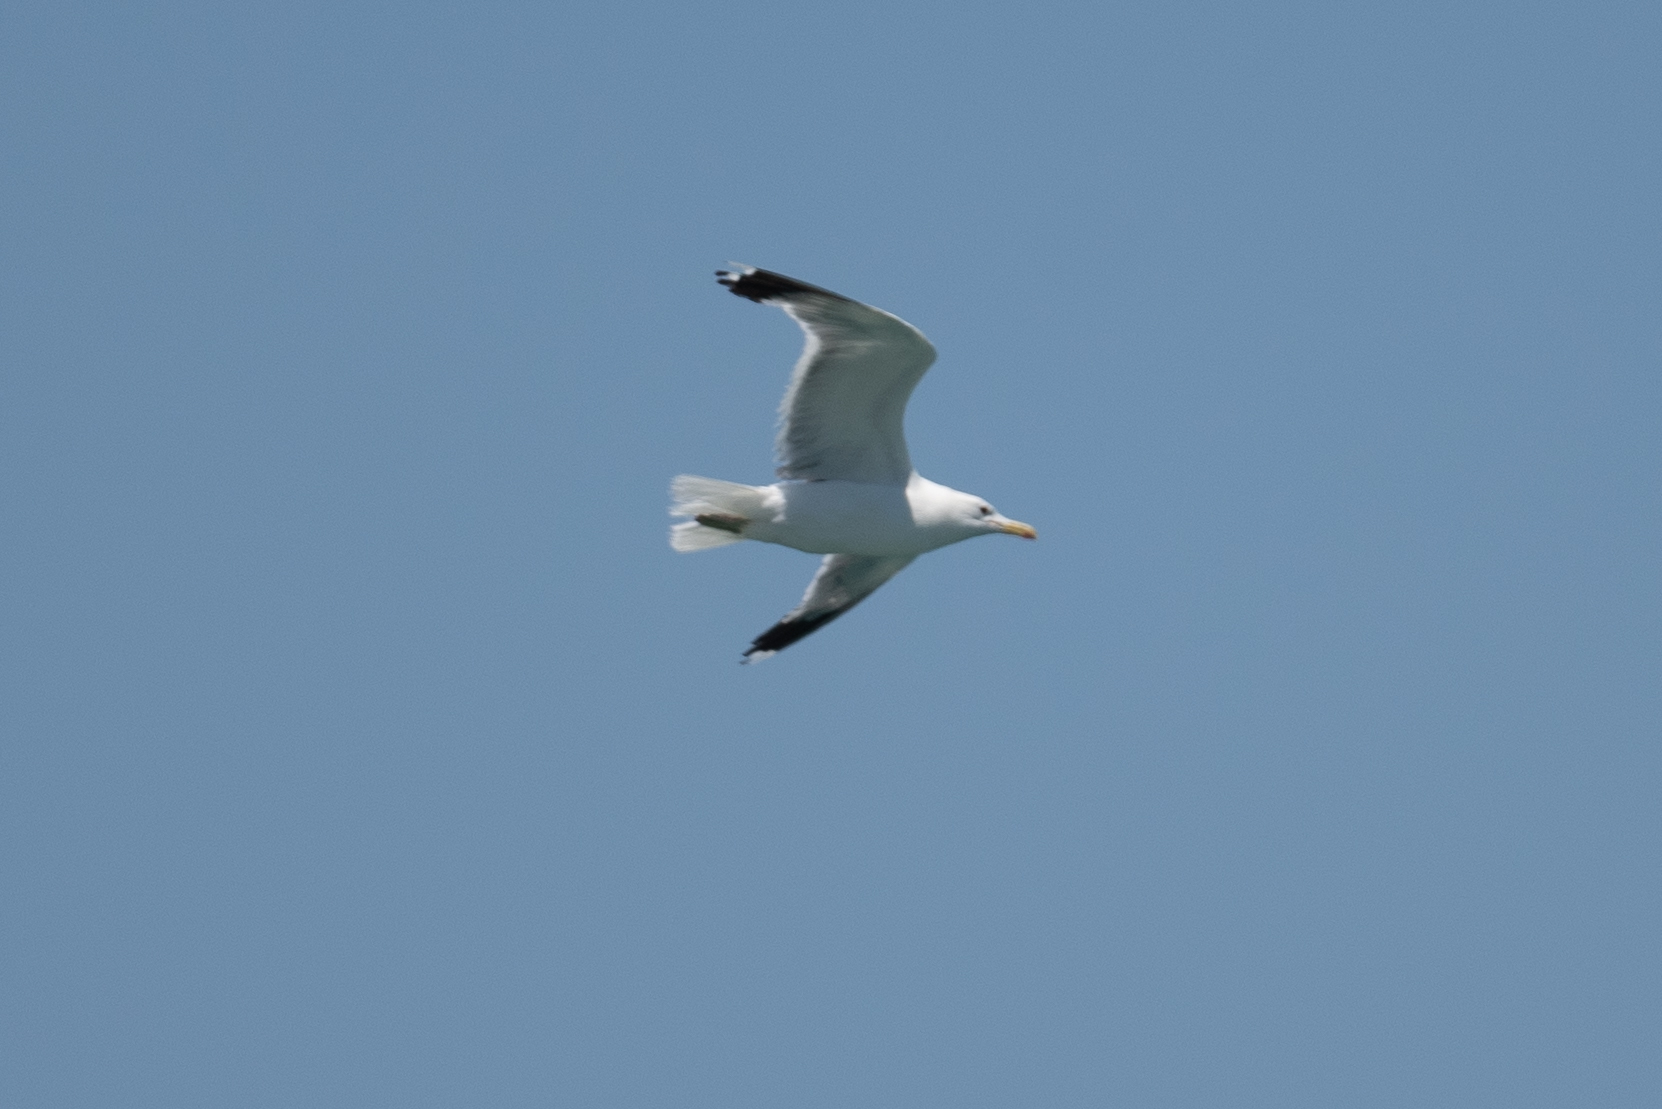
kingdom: Animalia
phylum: Chordata
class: Aves
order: Charadriiformes
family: Laridae
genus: Larus
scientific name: Larus californicus
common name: California gull
